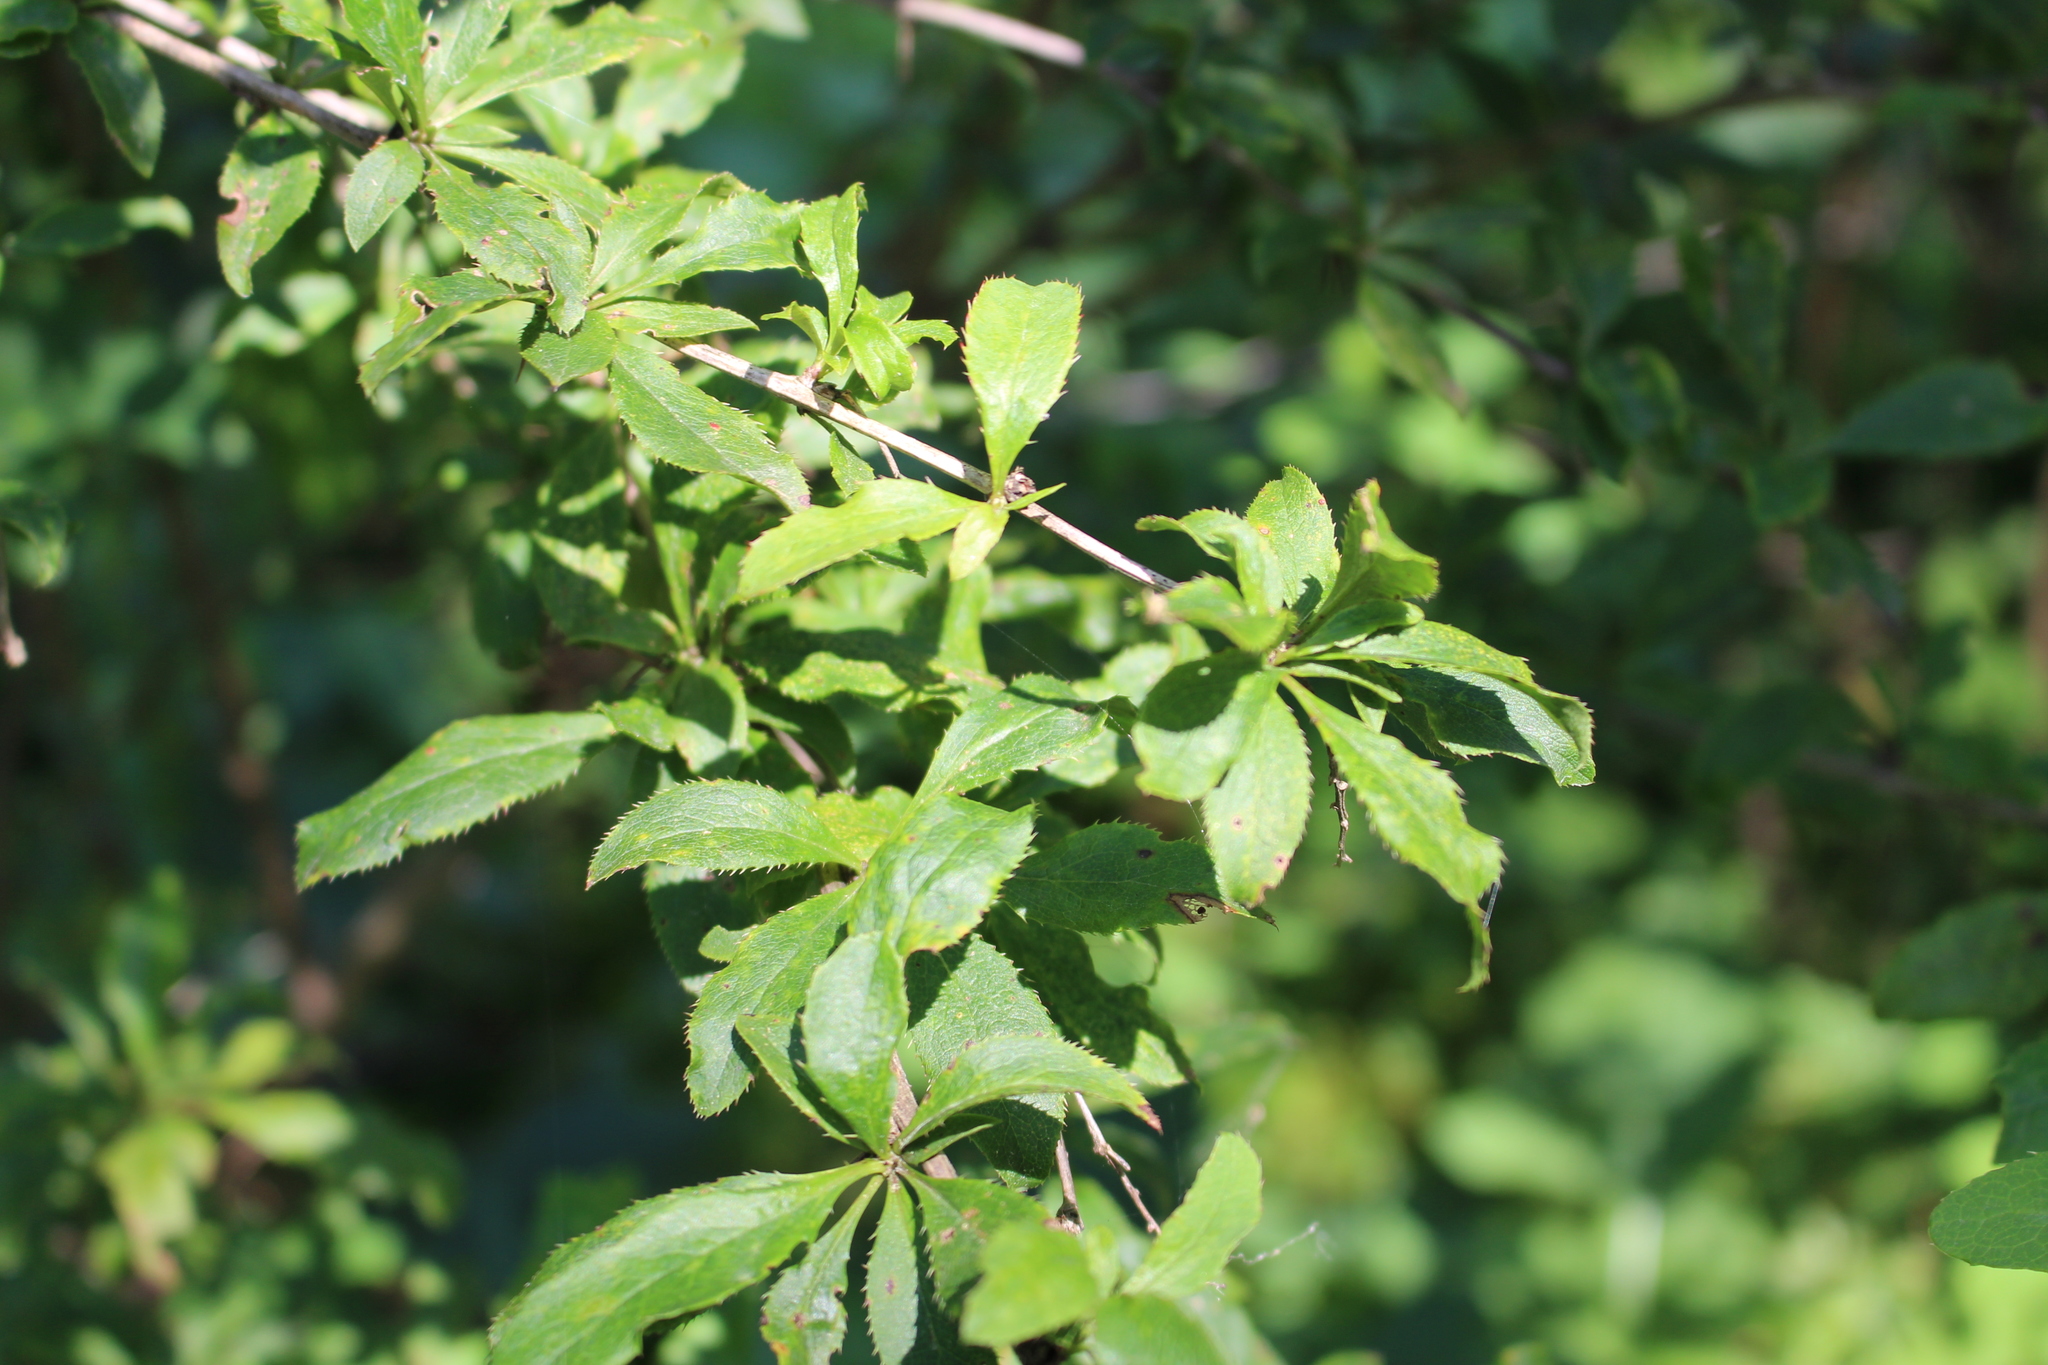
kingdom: Plantae
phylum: Tracheophyta
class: Magnoliopsida
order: Ranunculales
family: Berberidaceae
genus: Berberis
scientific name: Berberis vulgaris
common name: Barberry
